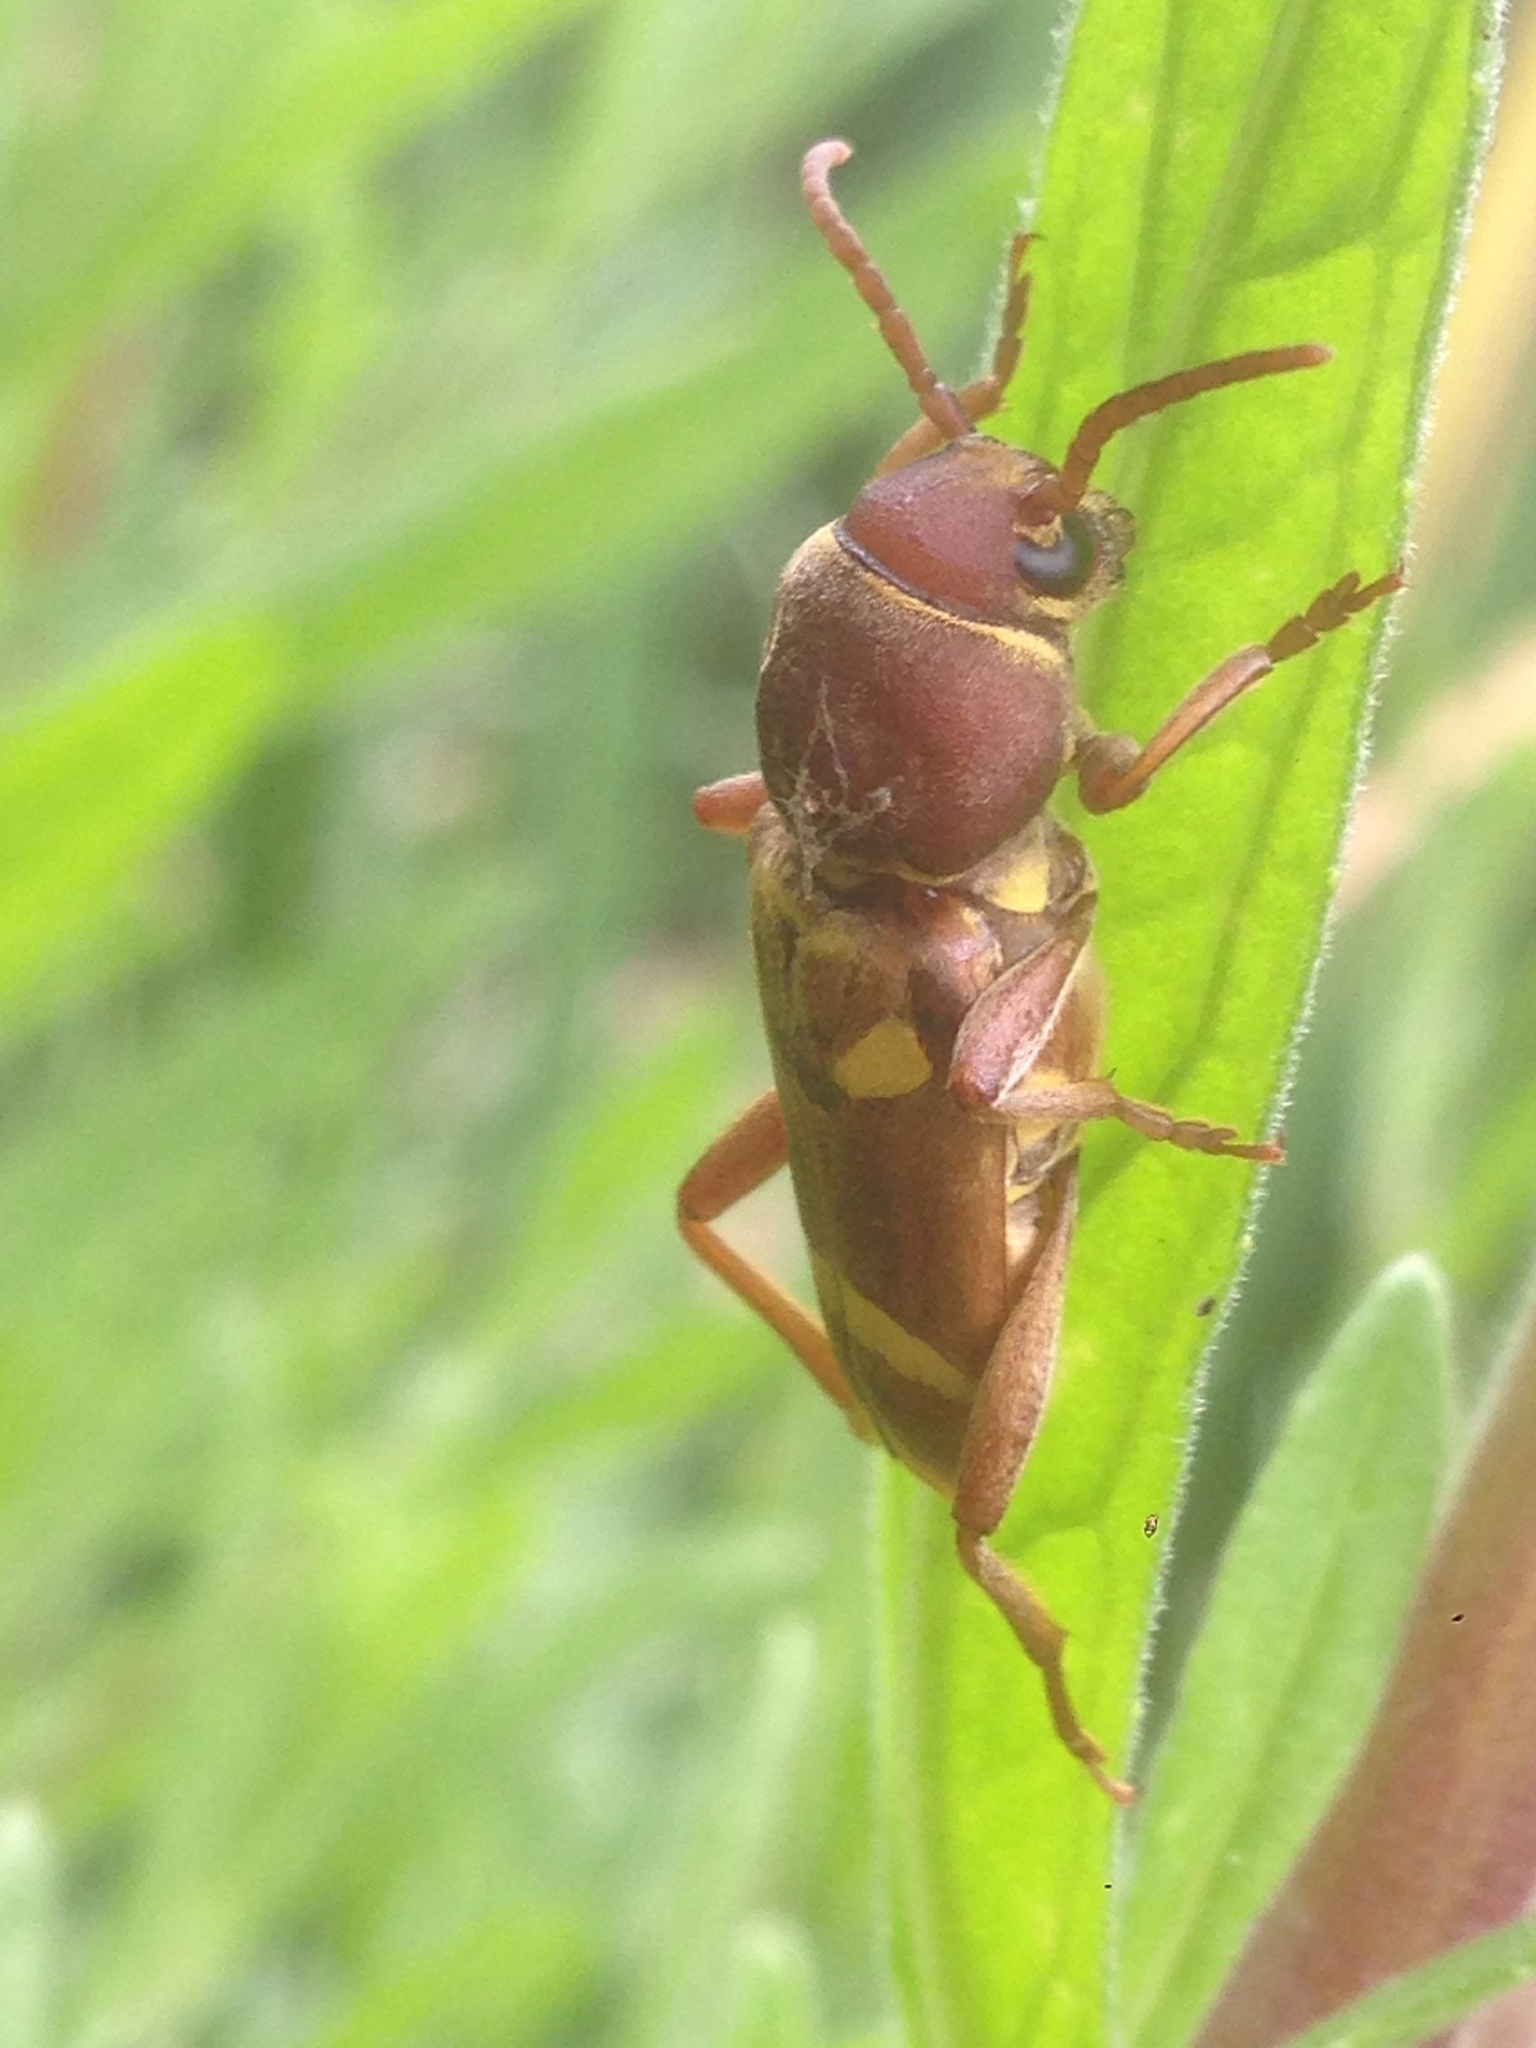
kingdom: Animalia
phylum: Arthropoda
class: Insecta
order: Coleoptera
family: Cerambycidae
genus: Xylotrechus
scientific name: Xylotrechus insignis
